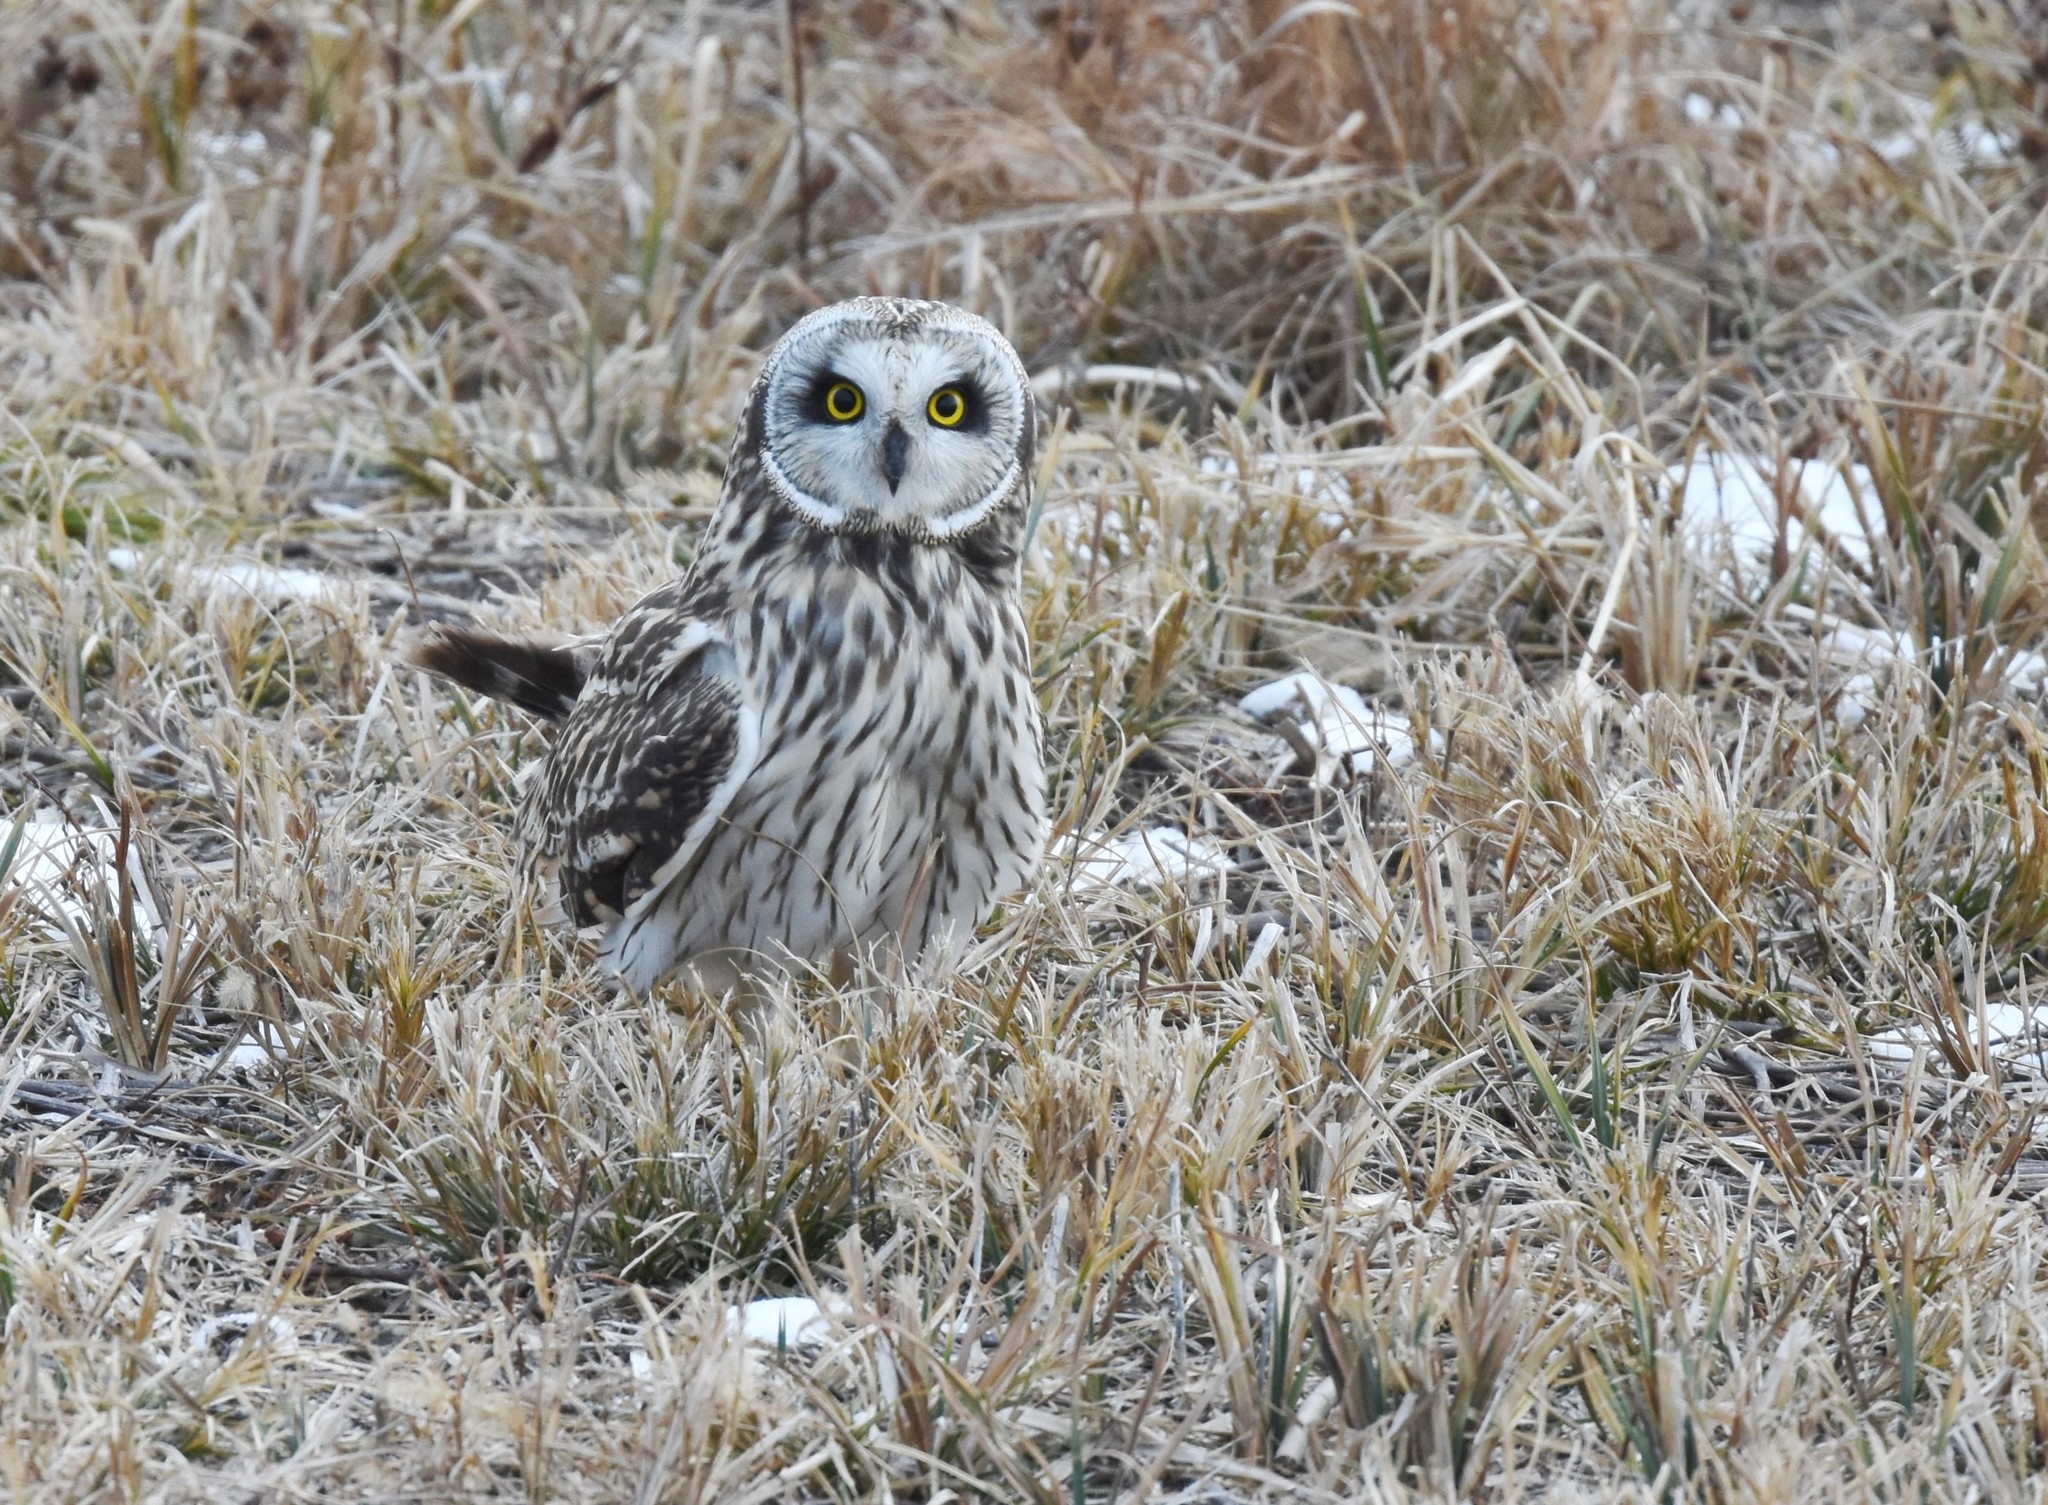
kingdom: Animalia
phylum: Chordata
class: Aves
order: Strigiformes
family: Strigidae
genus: Asio
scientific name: Asio flammeus
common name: Short-eared owl
